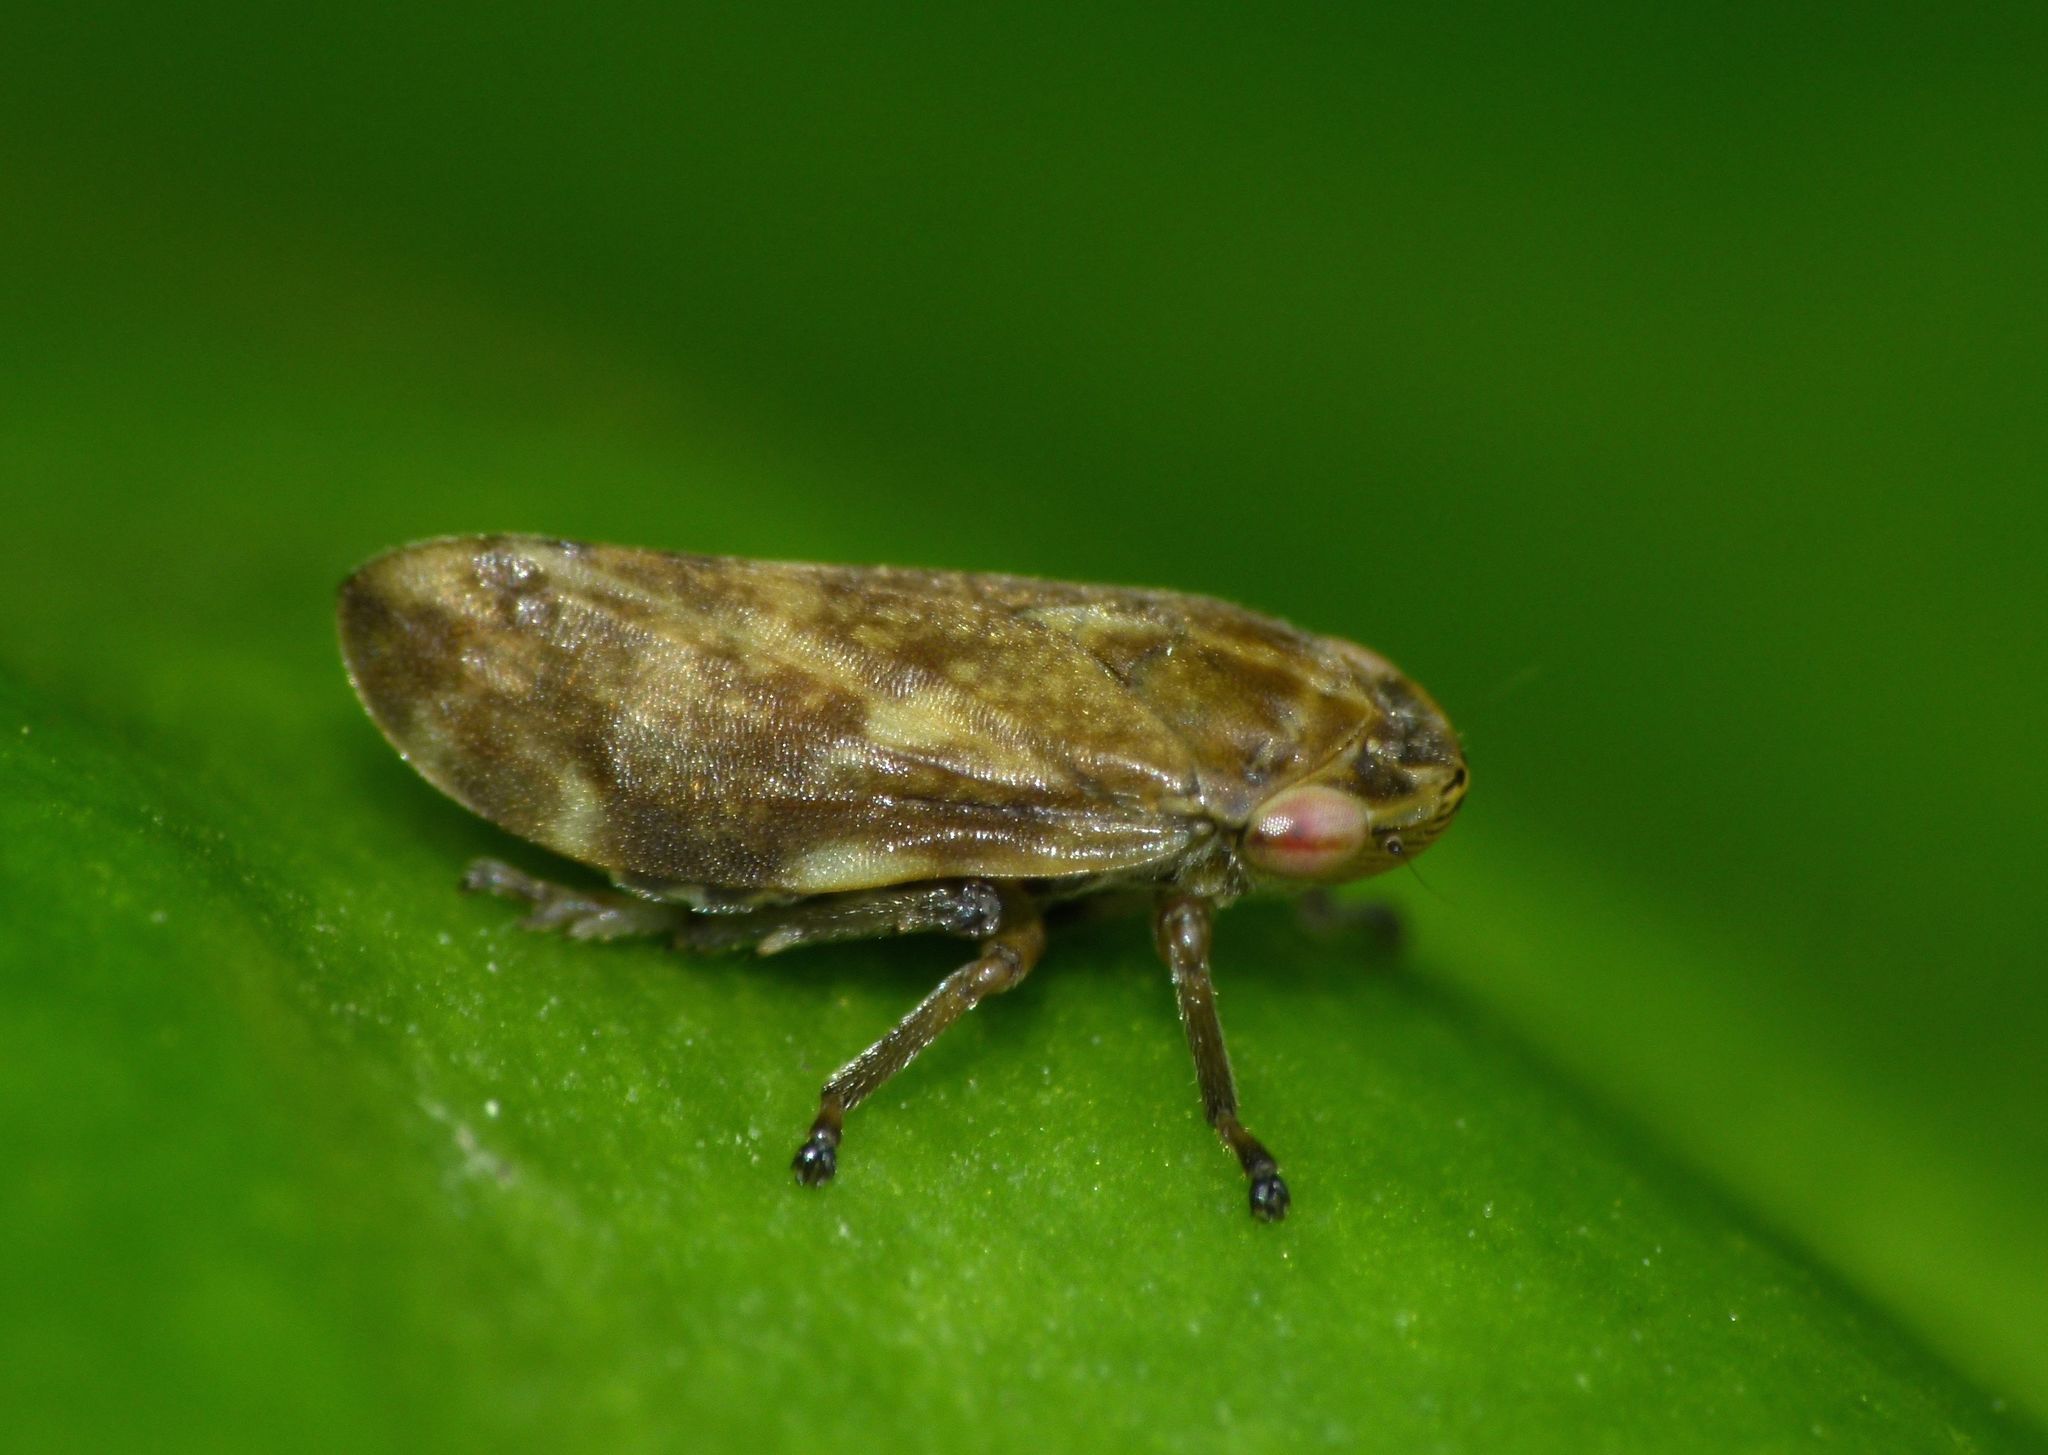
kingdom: Animalia
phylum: Arthropoda
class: Insecta
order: Hemiptera
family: Aphrophoridae
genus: Philaenus
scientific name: Philaenus spumarius
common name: Meadow spittlebug
